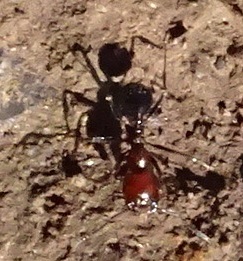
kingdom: Animalia
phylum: Arthropoda
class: Insecta
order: Hymenoptera
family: Formicidae
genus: Messor
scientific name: Messor minor
